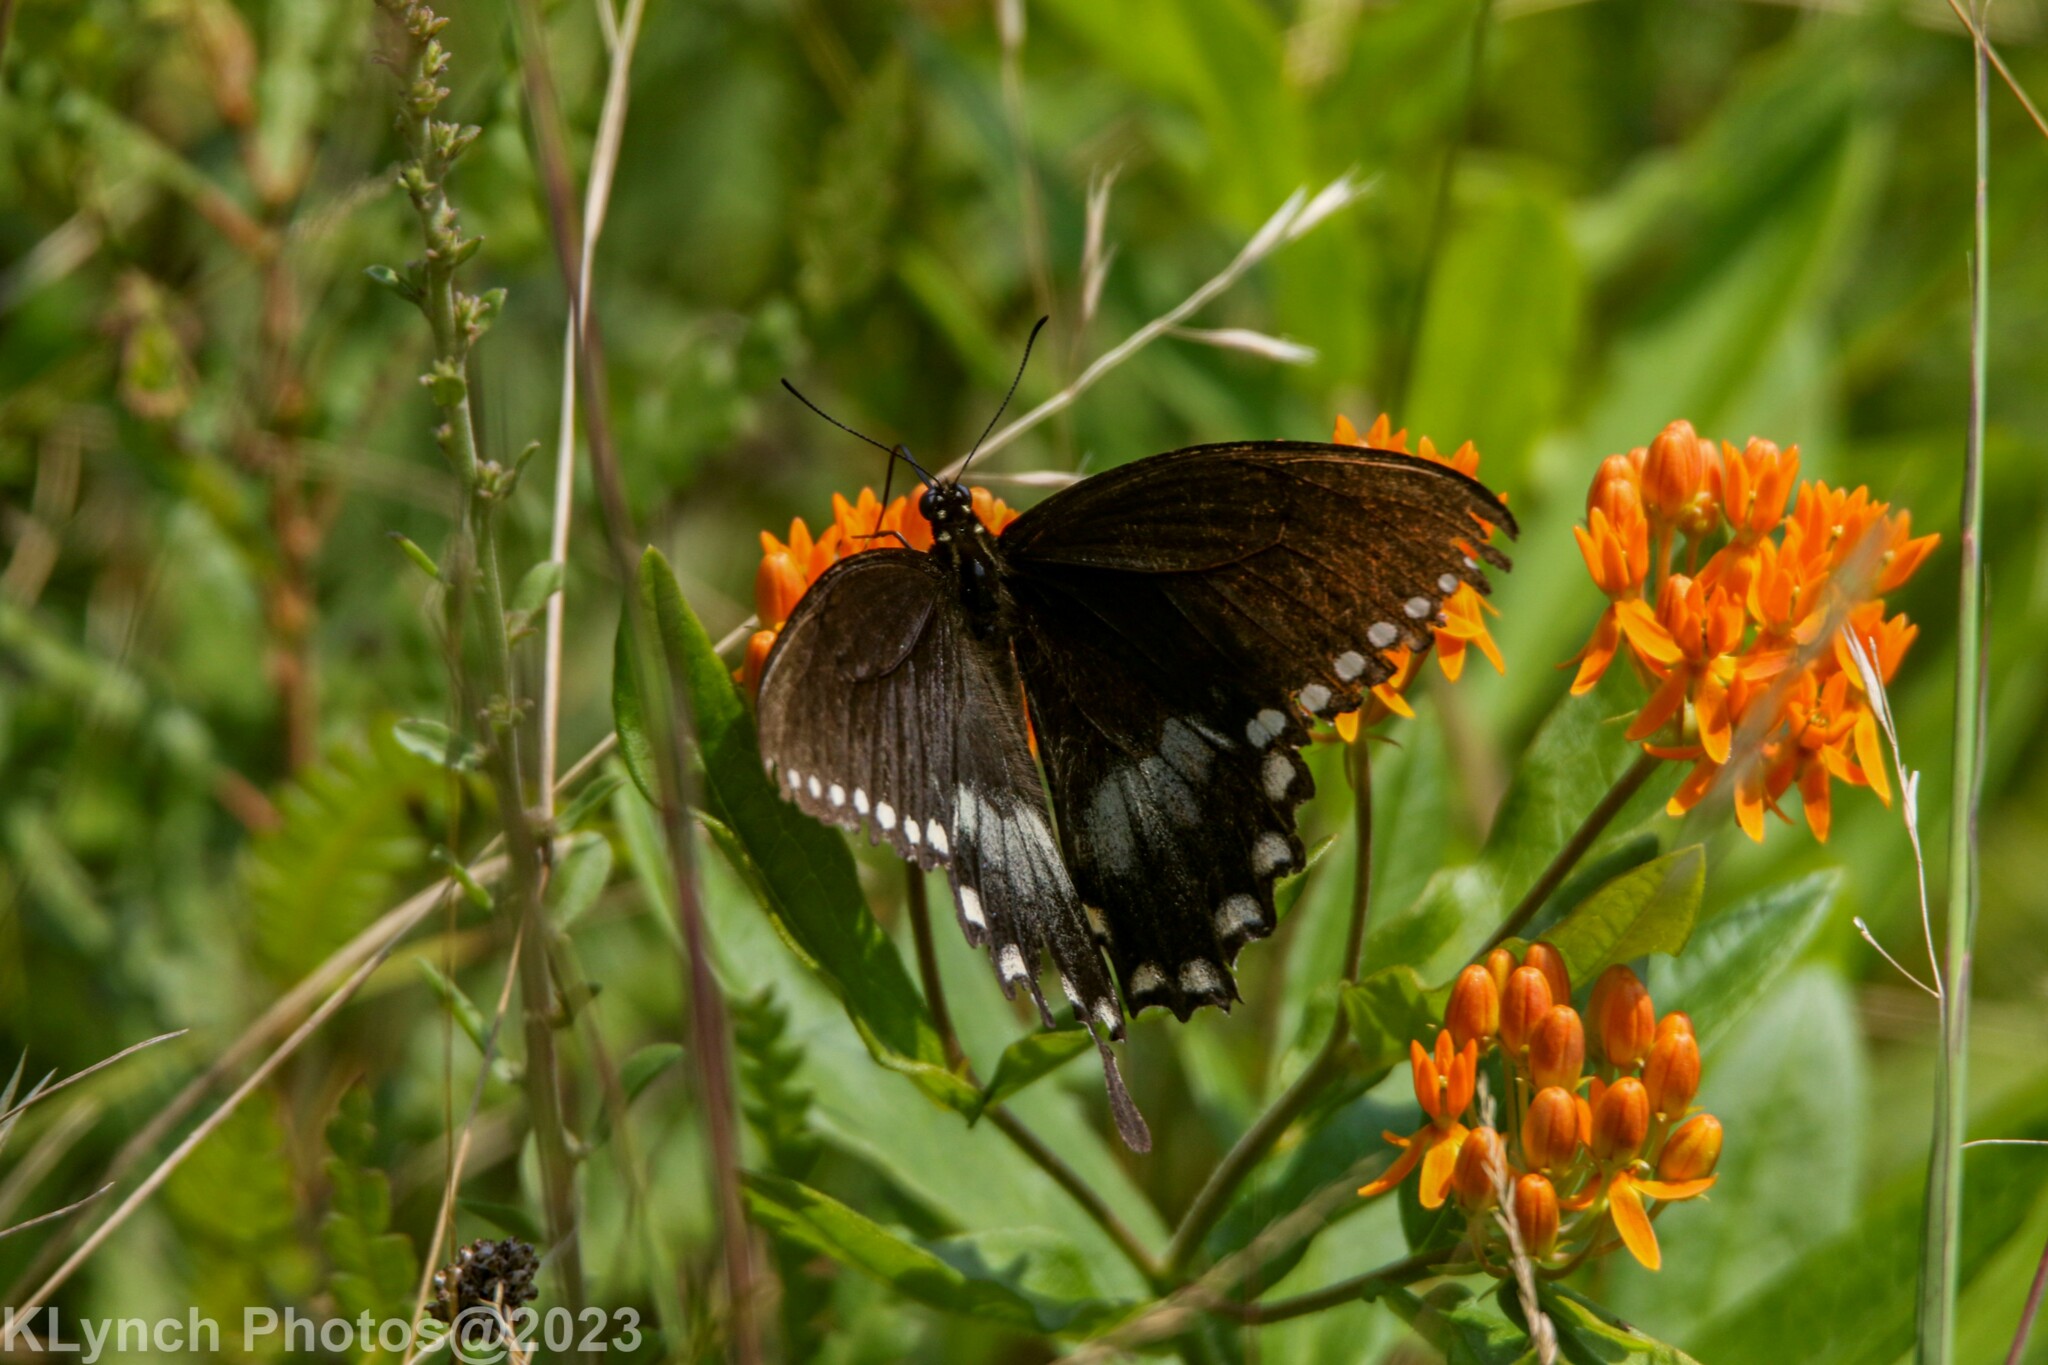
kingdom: Animalia
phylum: Arthropoda
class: Insecta
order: Lepidoptera
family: Papilionidae
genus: Papilio
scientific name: Papilio troilus
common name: Spicebush swallowtail
